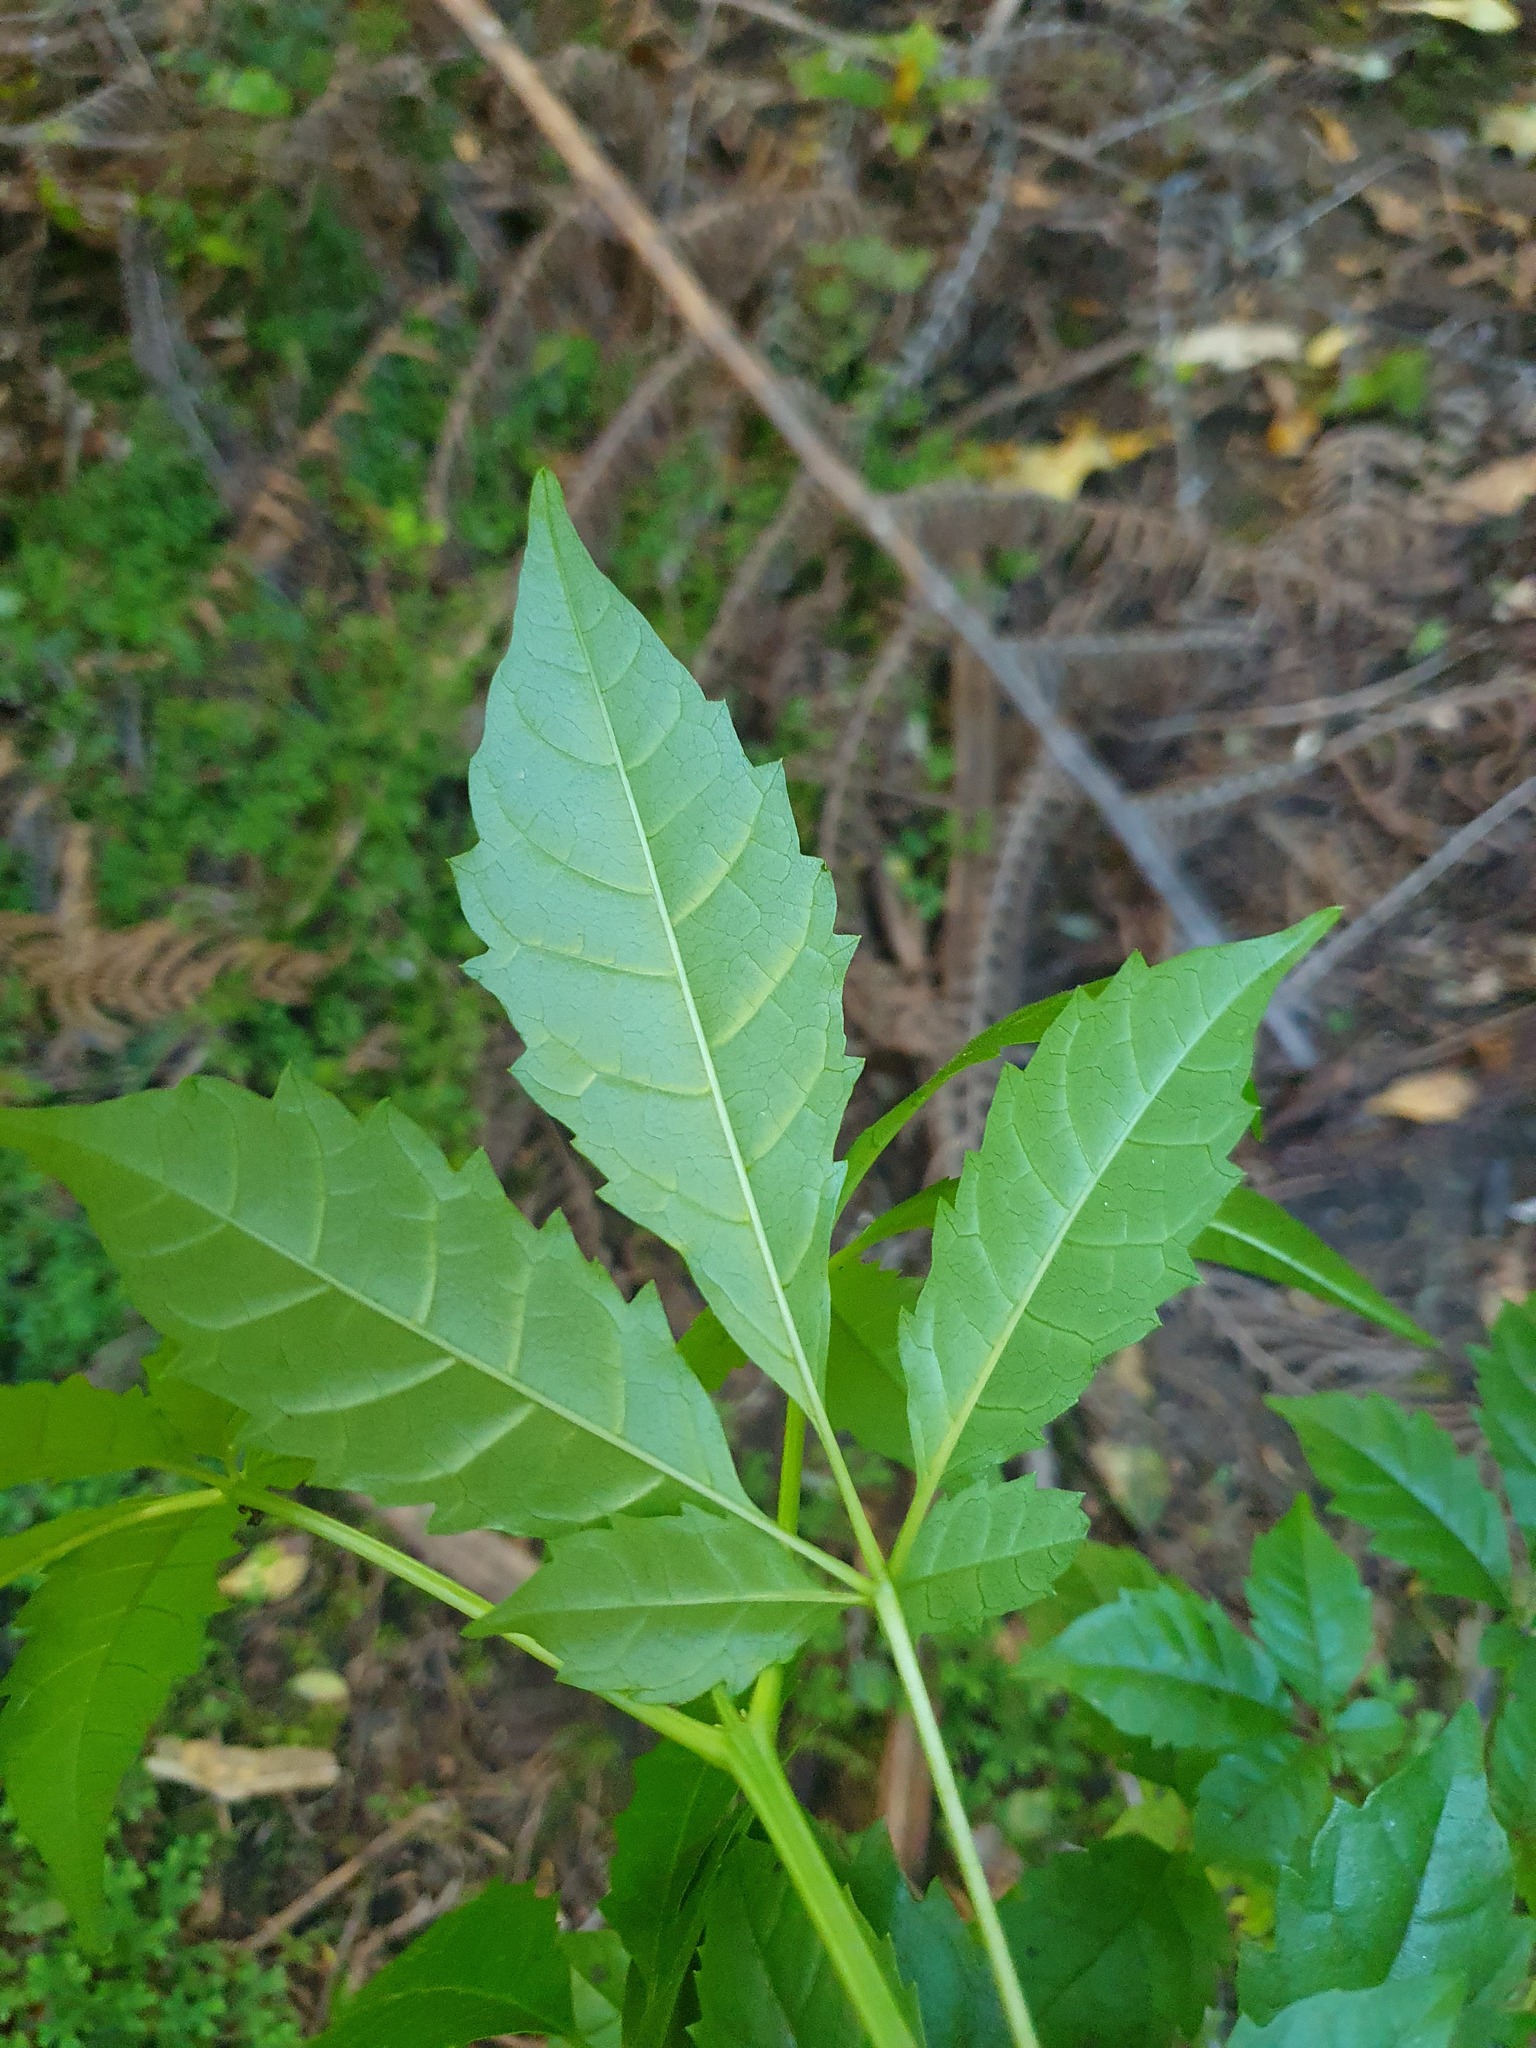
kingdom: Plantae
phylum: Tracheophyta
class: Magnoliopsida
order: Lamiales
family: Lamiaceae
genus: Vitex
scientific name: Vitex lucens
